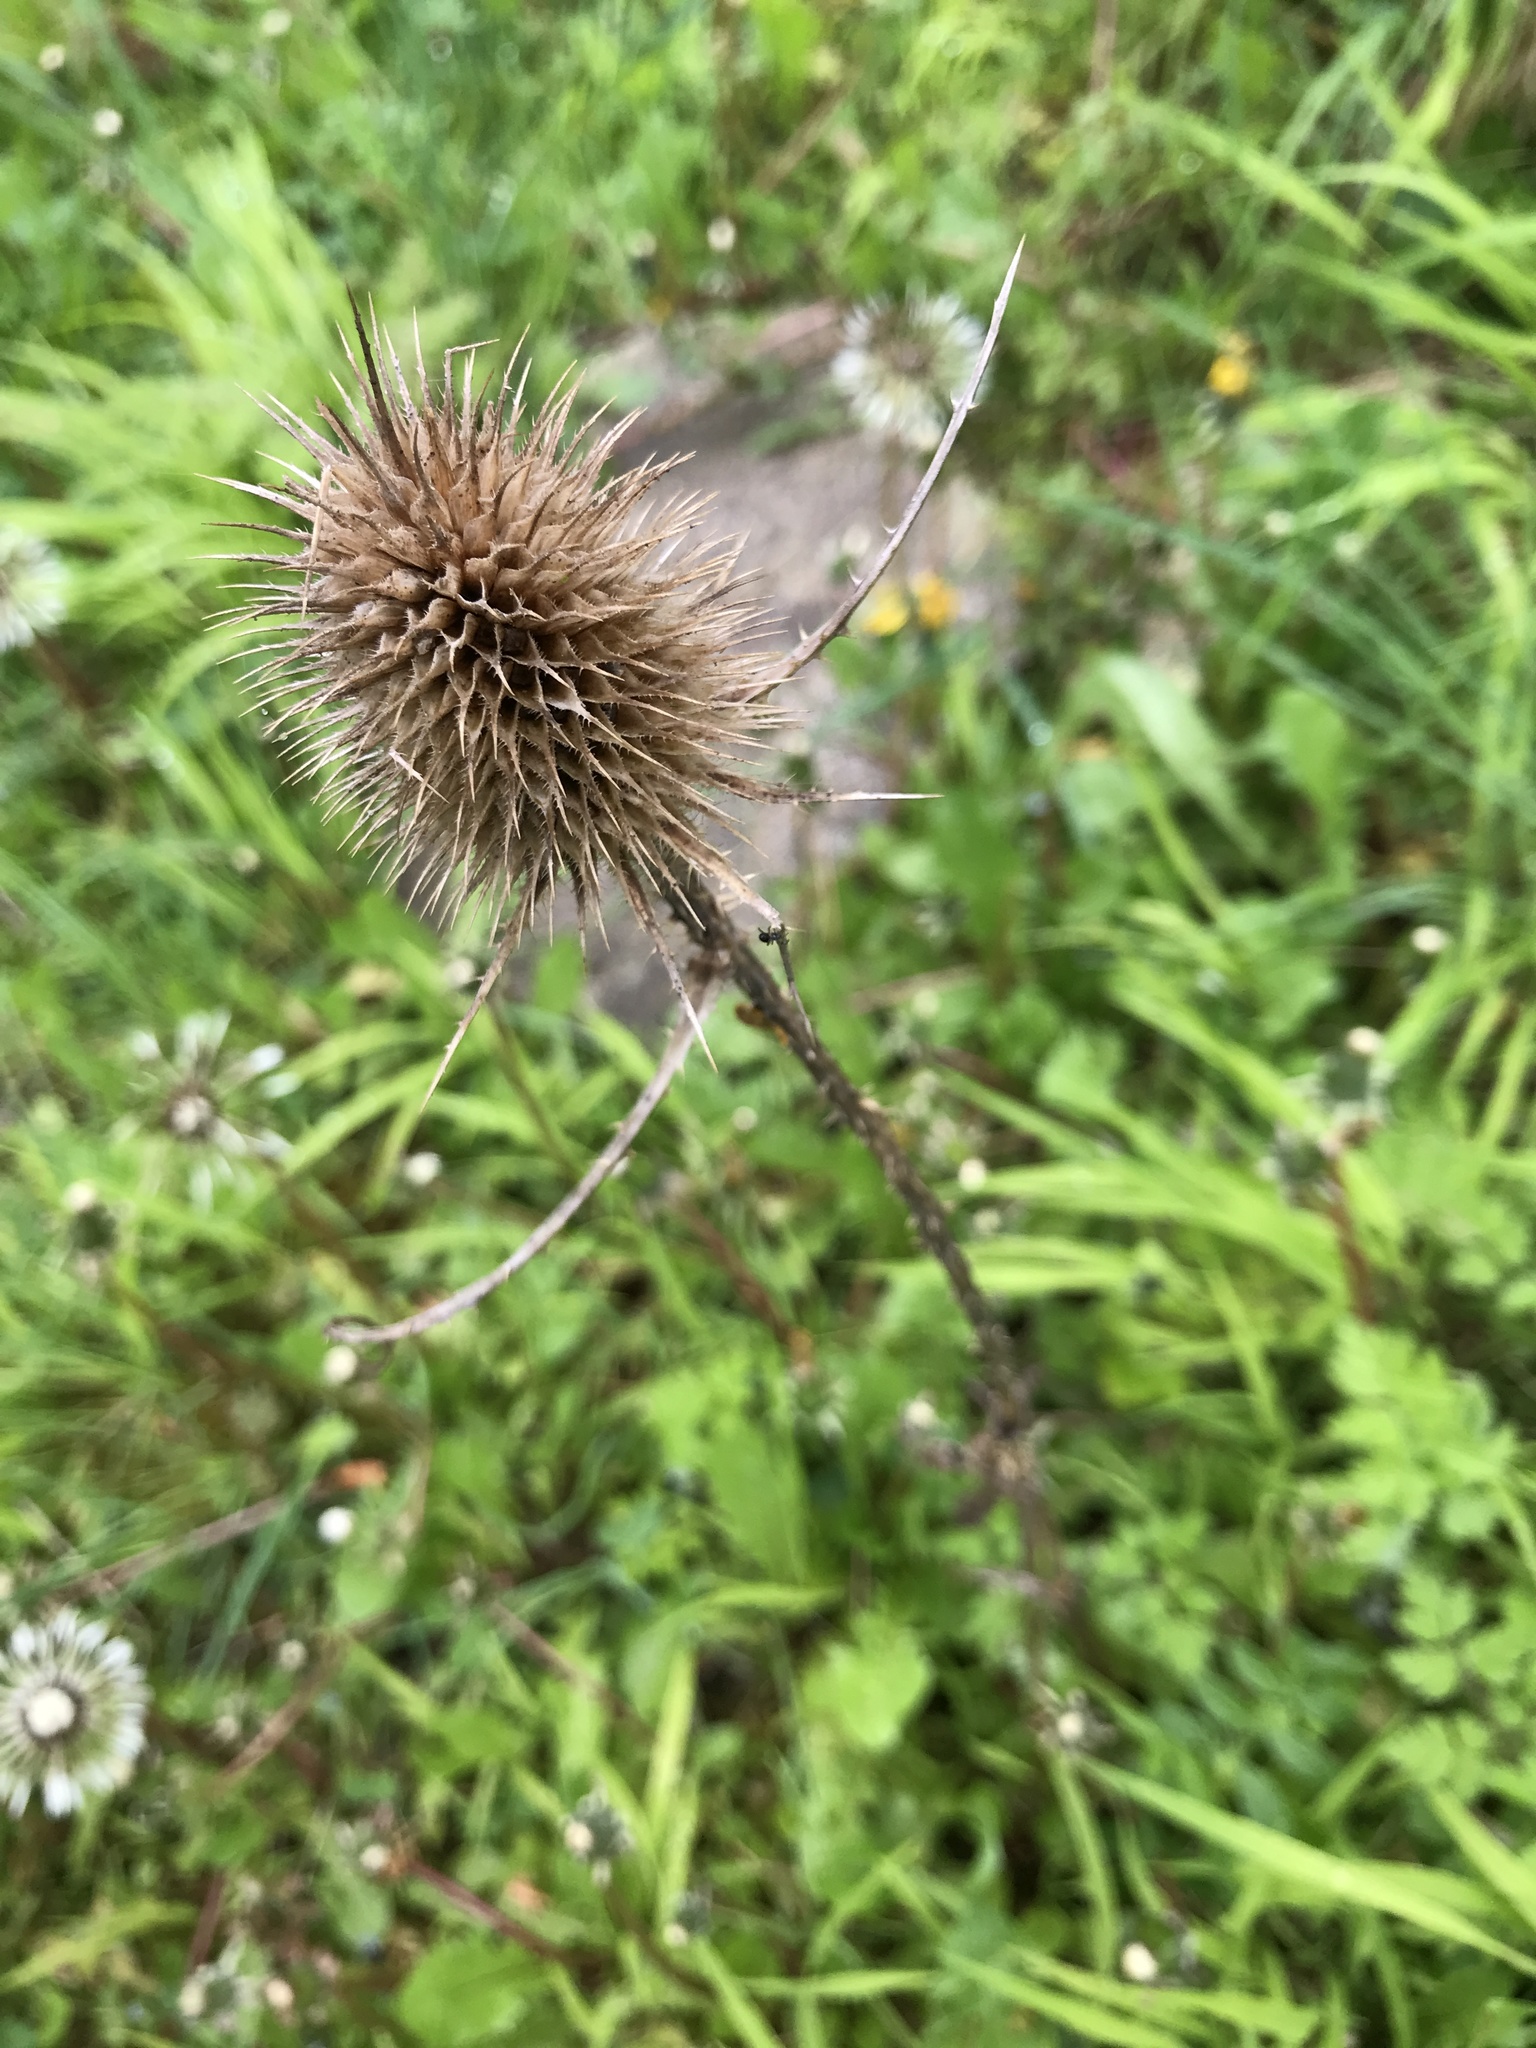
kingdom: Plantae
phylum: Tracheophyta
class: Magnoliopsida
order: Dipsacales
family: Caprifoliaceae
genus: Dipsacus
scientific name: Dipsacus fullonum
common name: Teasel
